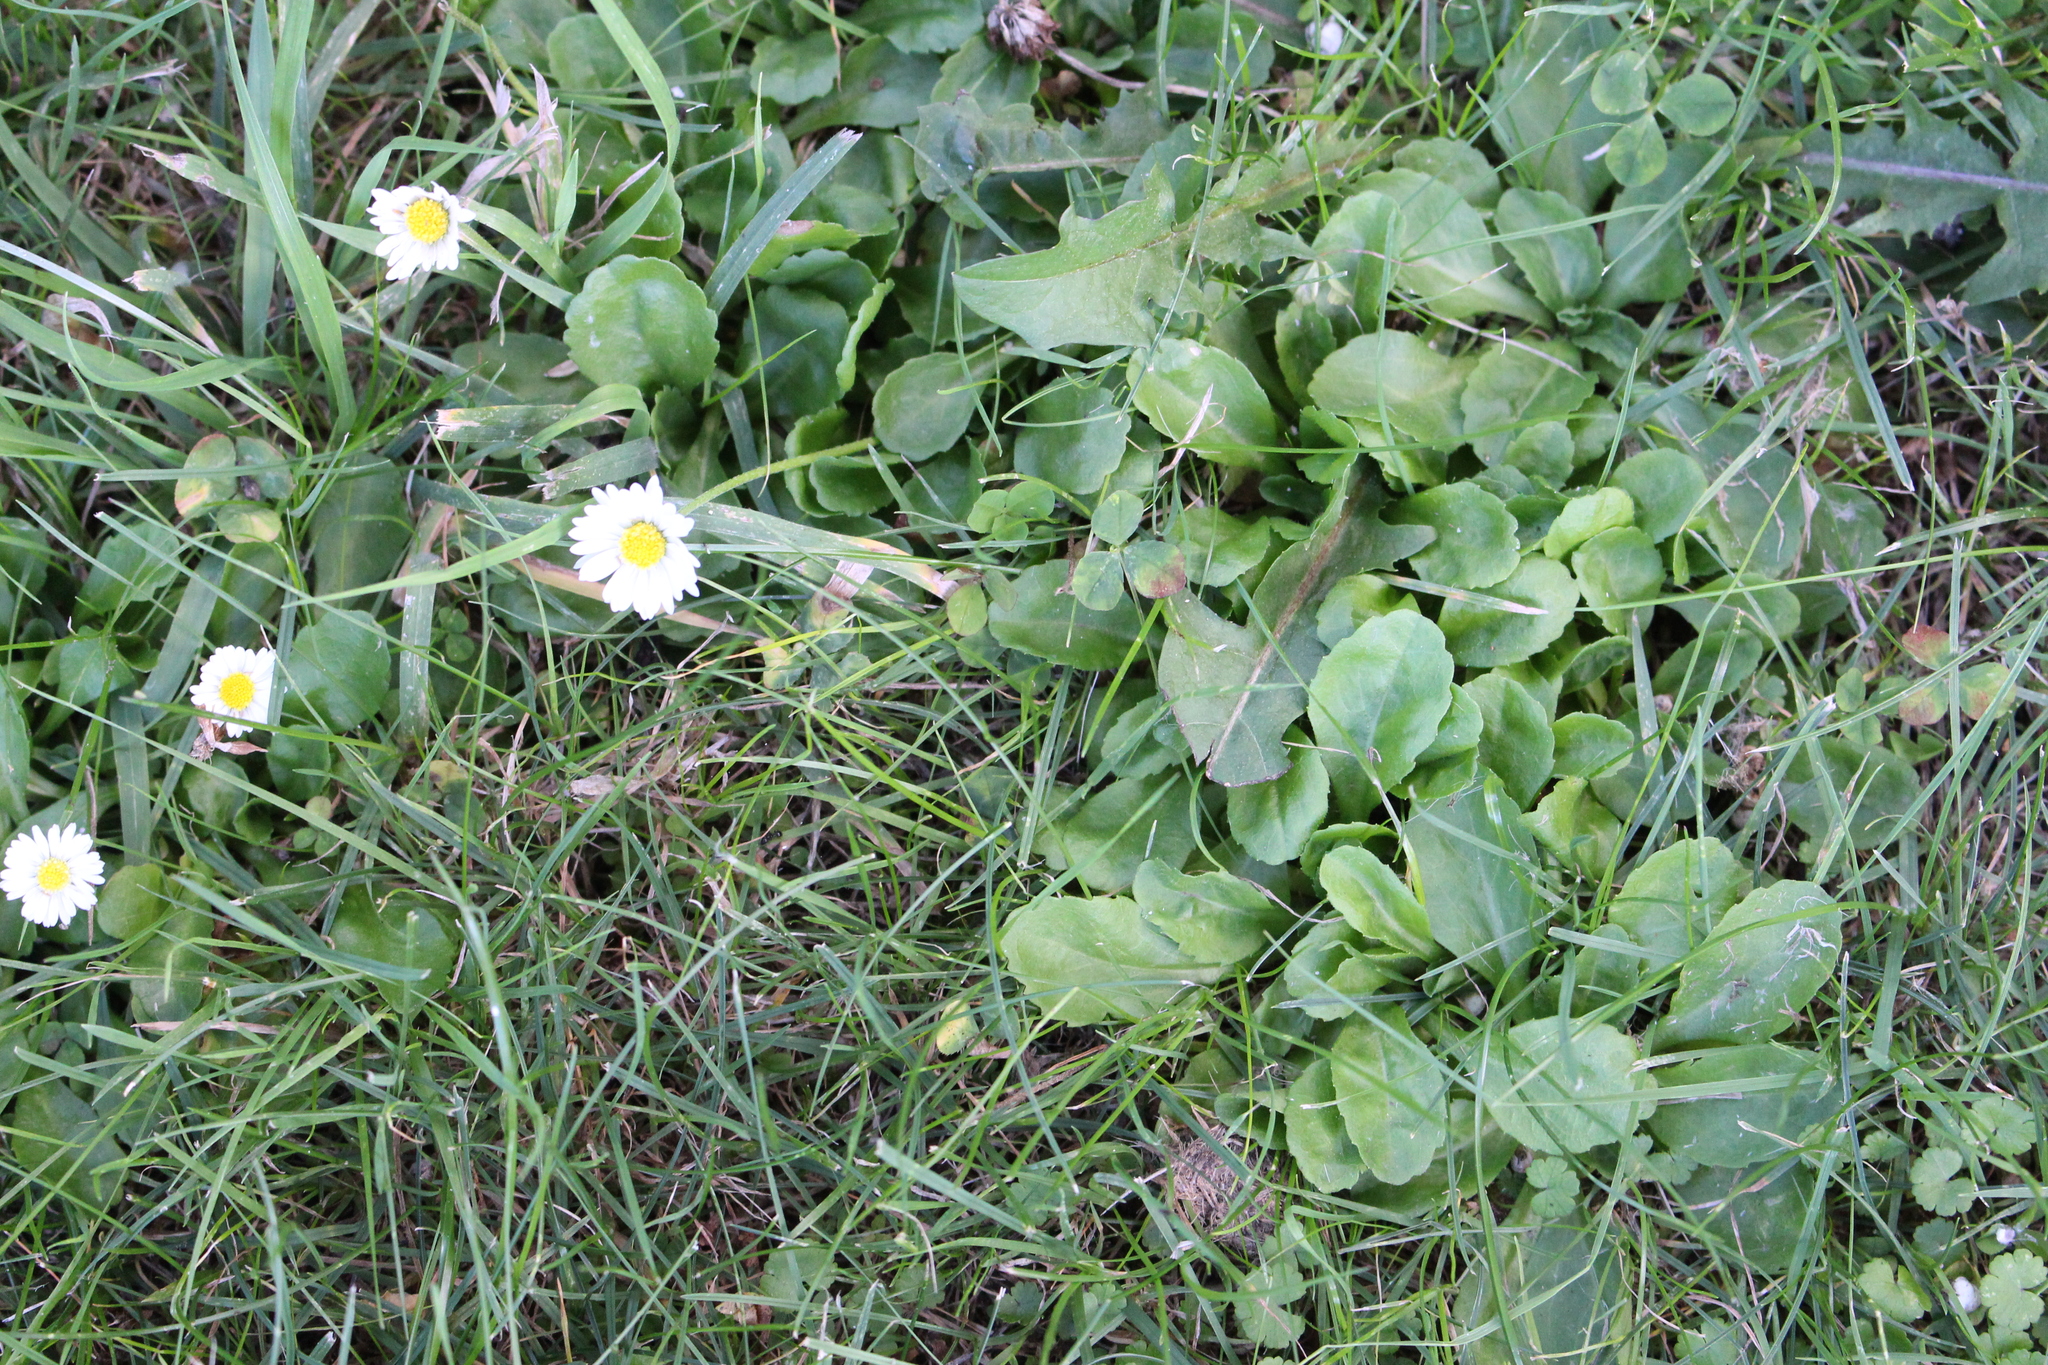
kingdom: Plantae
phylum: Tracheophyta
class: Magnoliopsida
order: Asterales
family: Asteraceae
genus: Bellis
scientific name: Bellis perennis
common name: Lawndaisy
